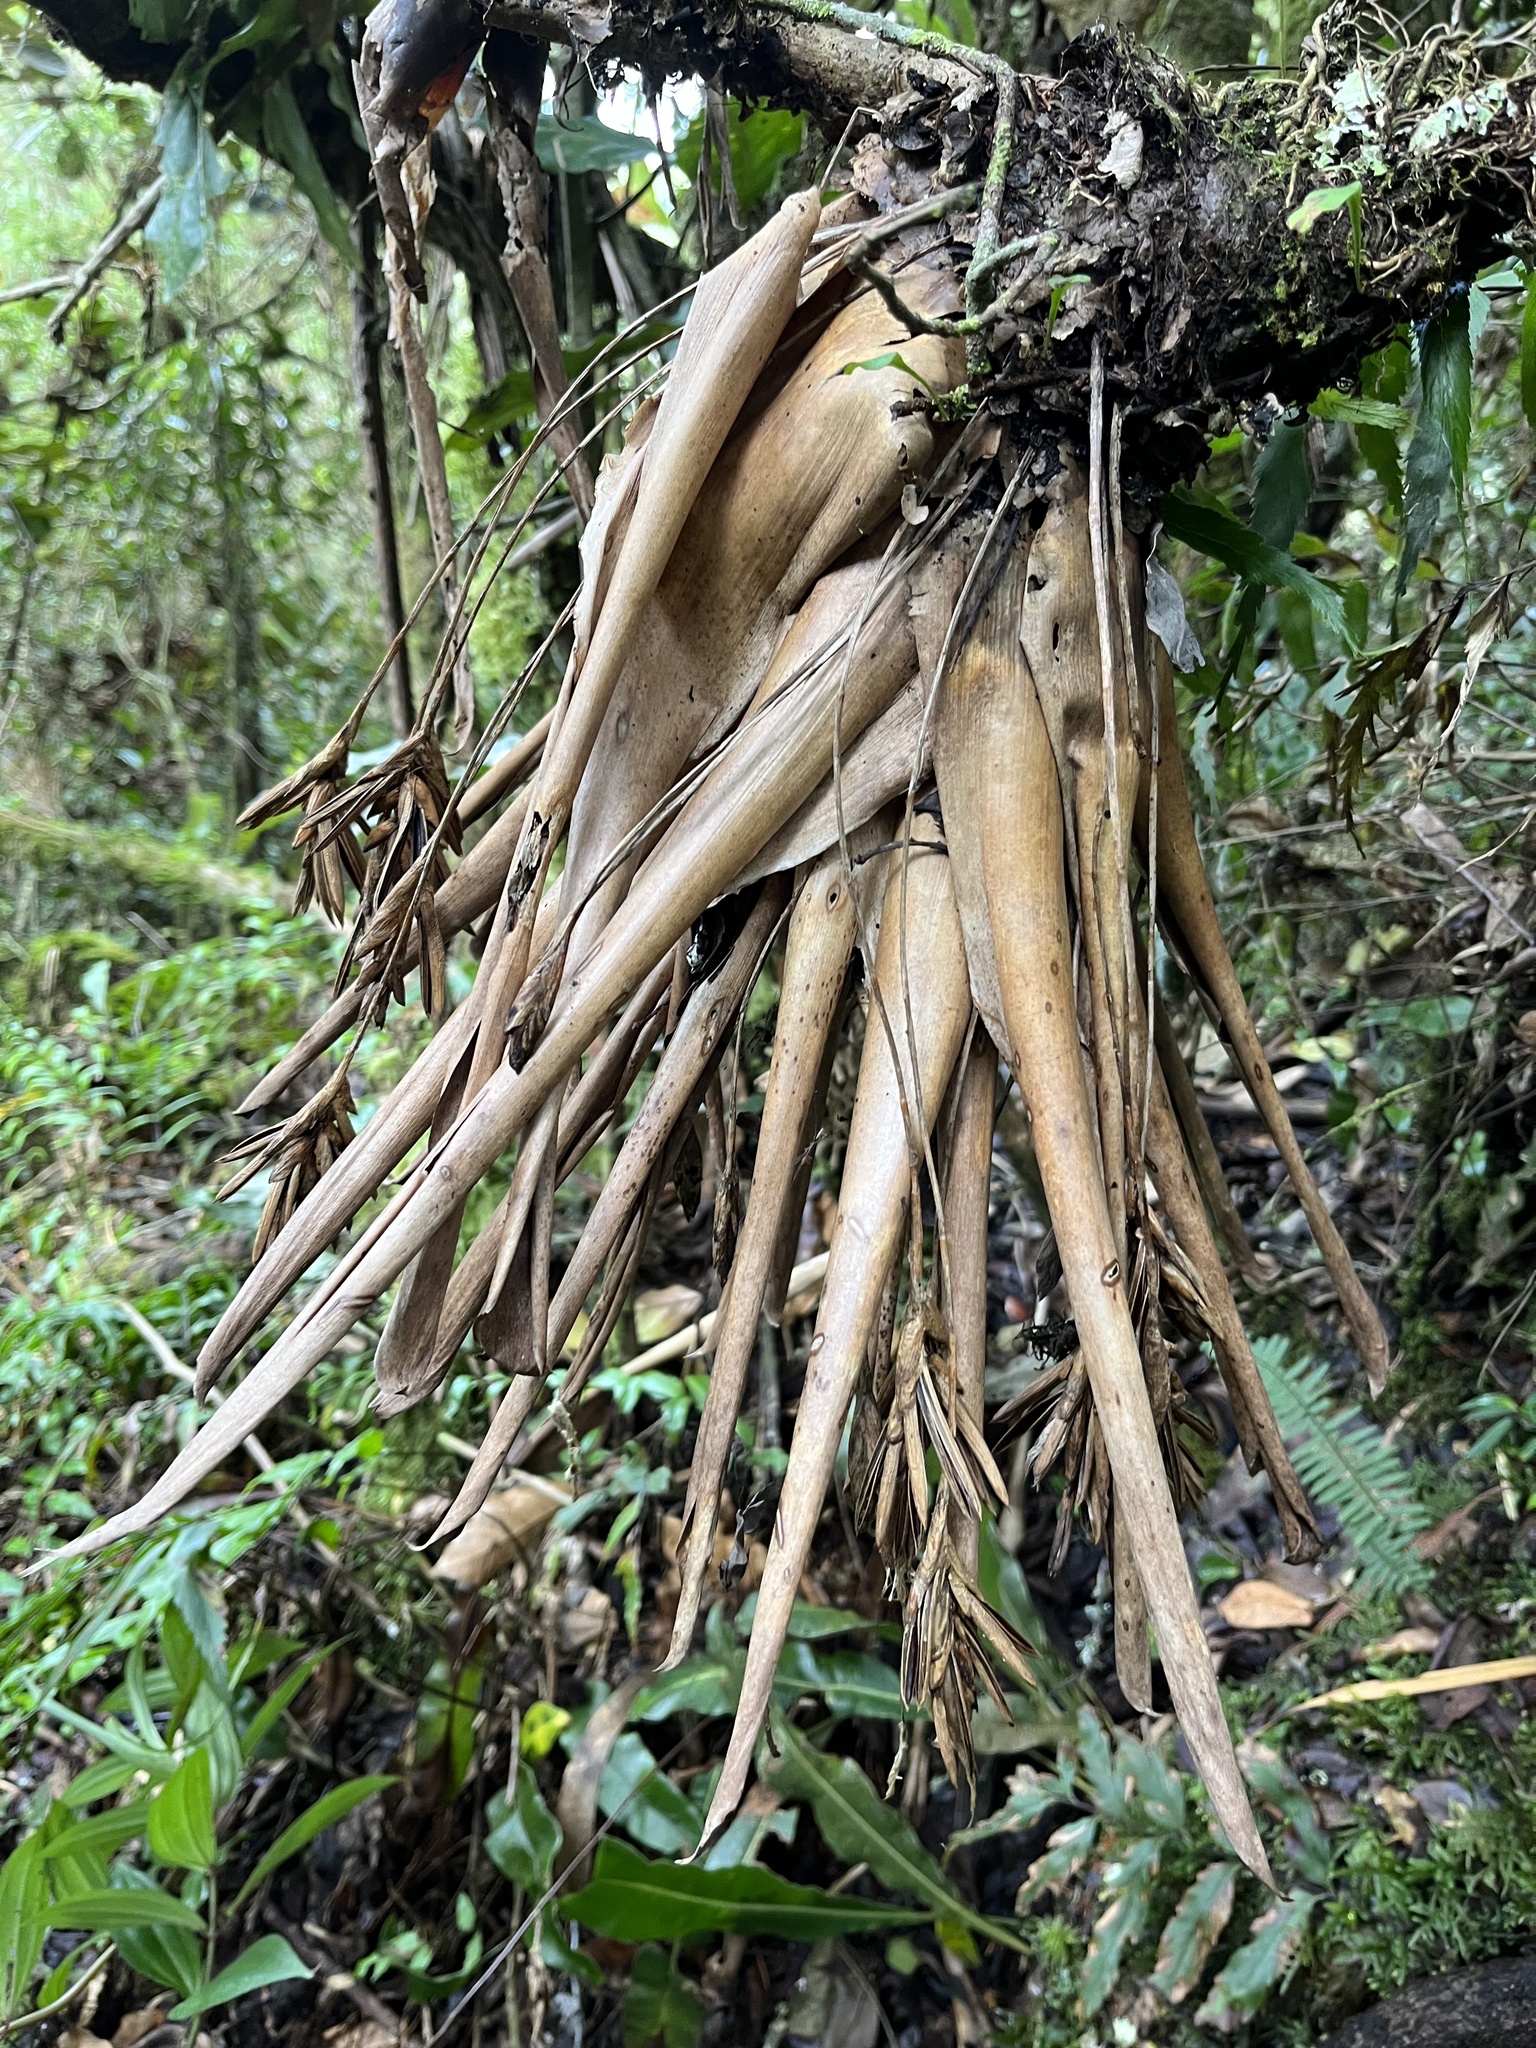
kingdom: Plantae
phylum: Tracheophyta
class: Liliopsida
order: Poales
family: Bromeliaceae
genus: Tillandsia
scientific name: Tillandsia complanata
